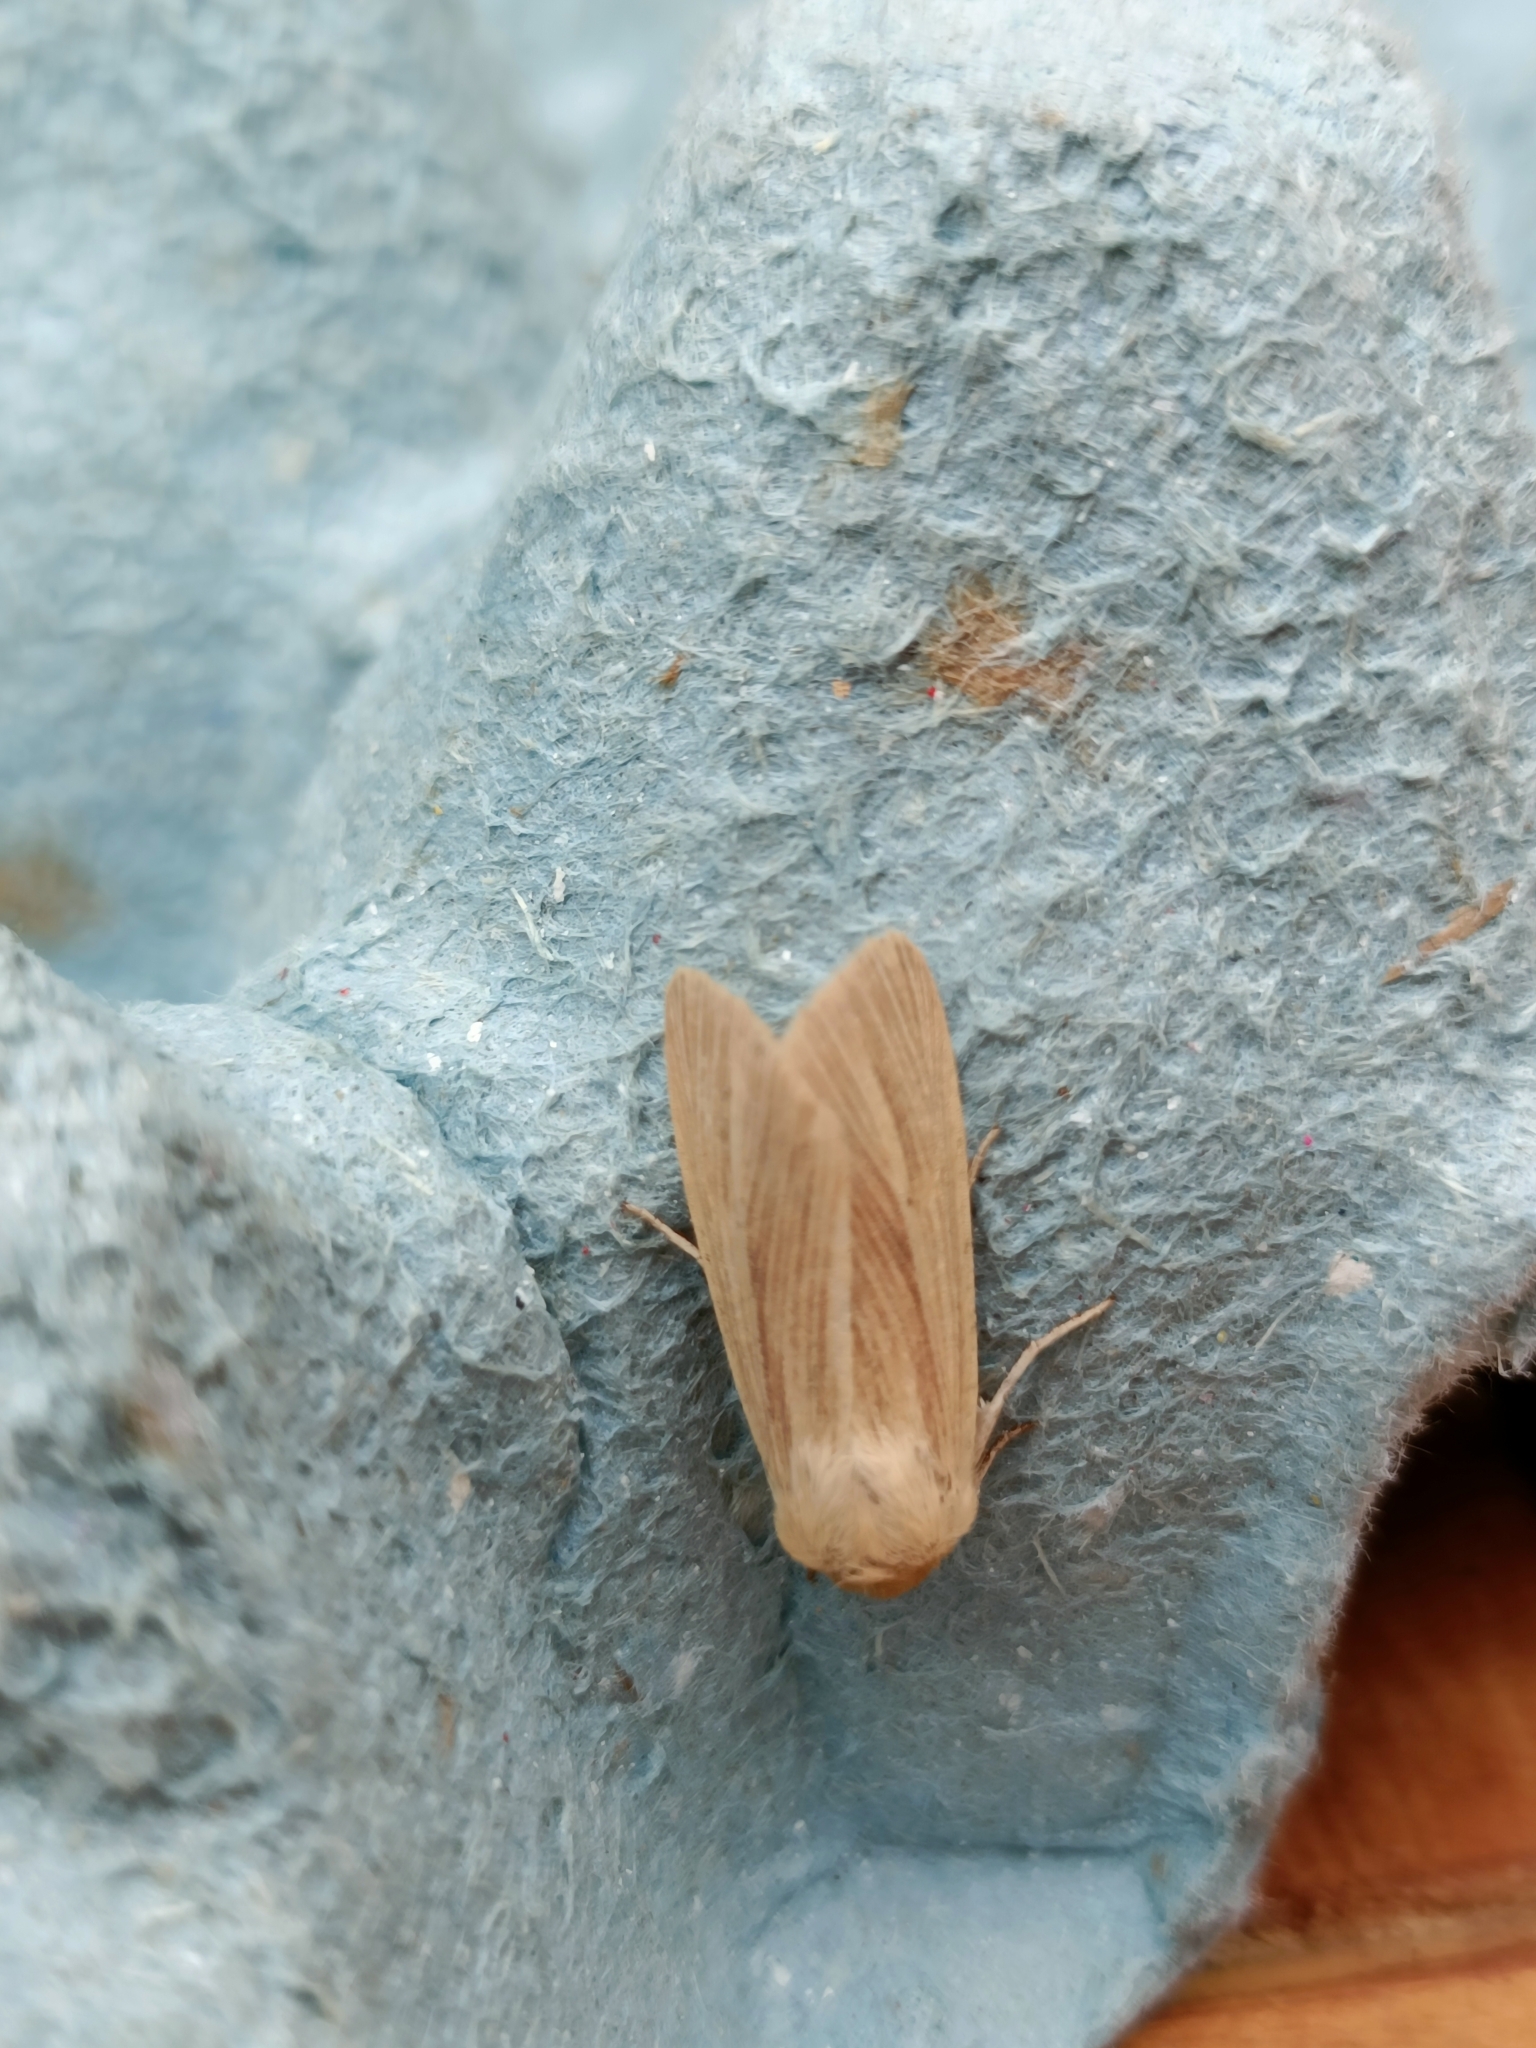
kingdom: Animalia
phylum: Arthropoda
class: Insecta
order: Lepidoptera
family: Noctuidae
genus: Mythimna
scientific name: Mythimna pallens
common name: Common wainscot
